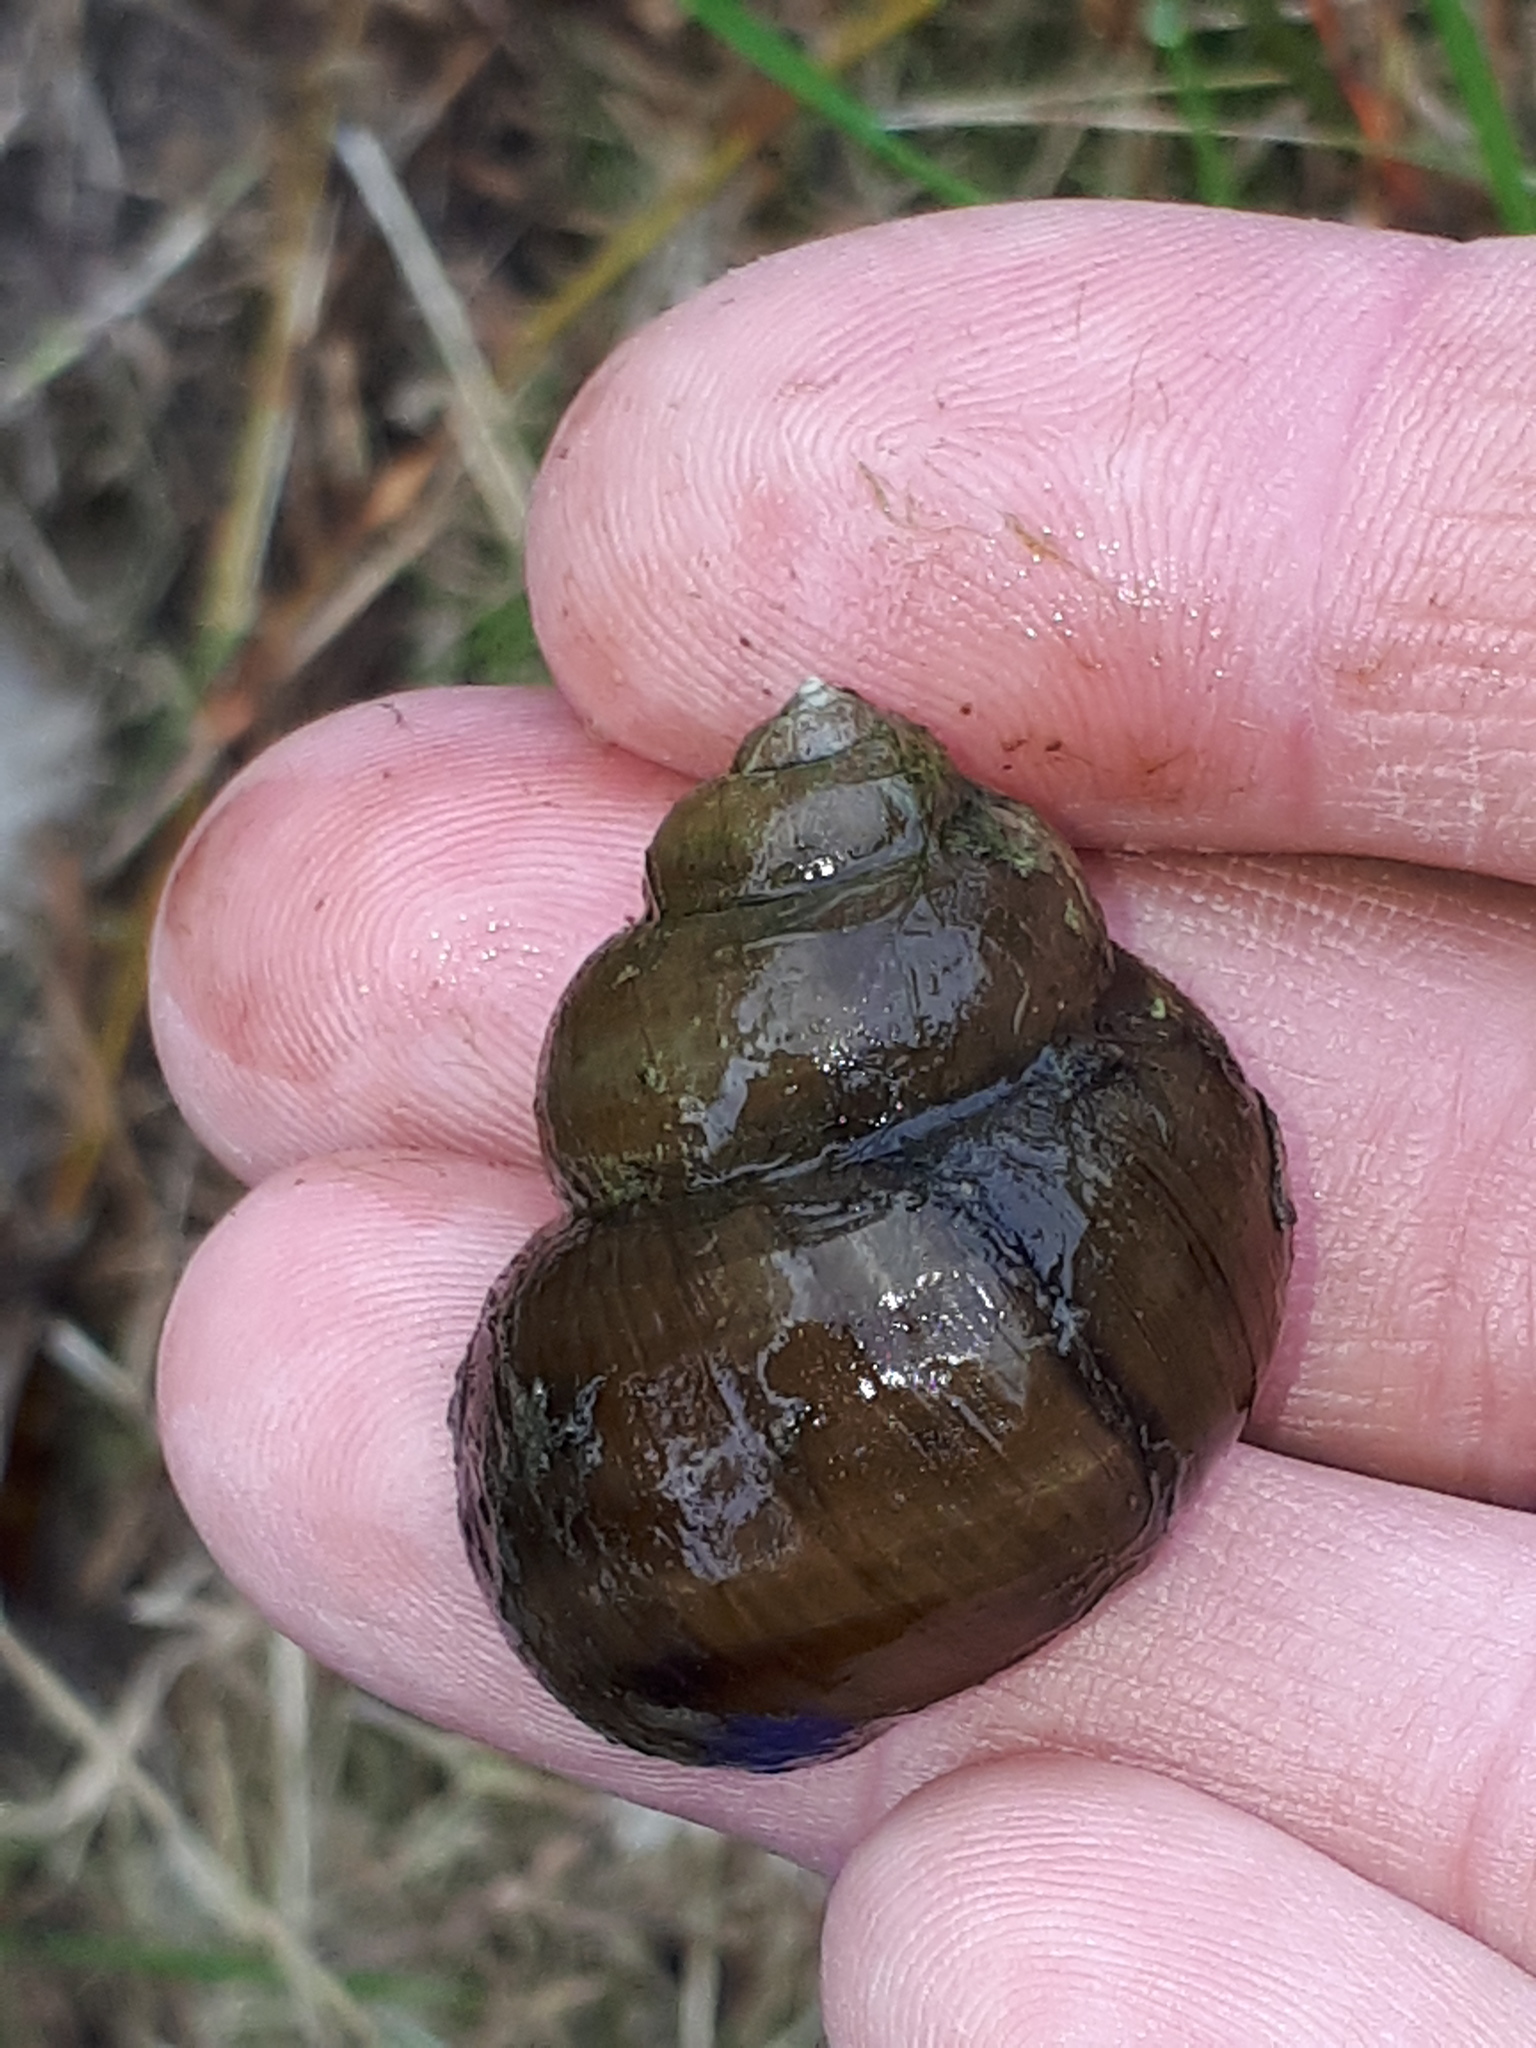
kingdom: Animalia
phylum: Mollusca
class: Gastropoda
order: Architaenioglossa
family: Viviparidae
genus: Viviparus
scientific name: Viviparus contectus
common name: Lister's river snail
